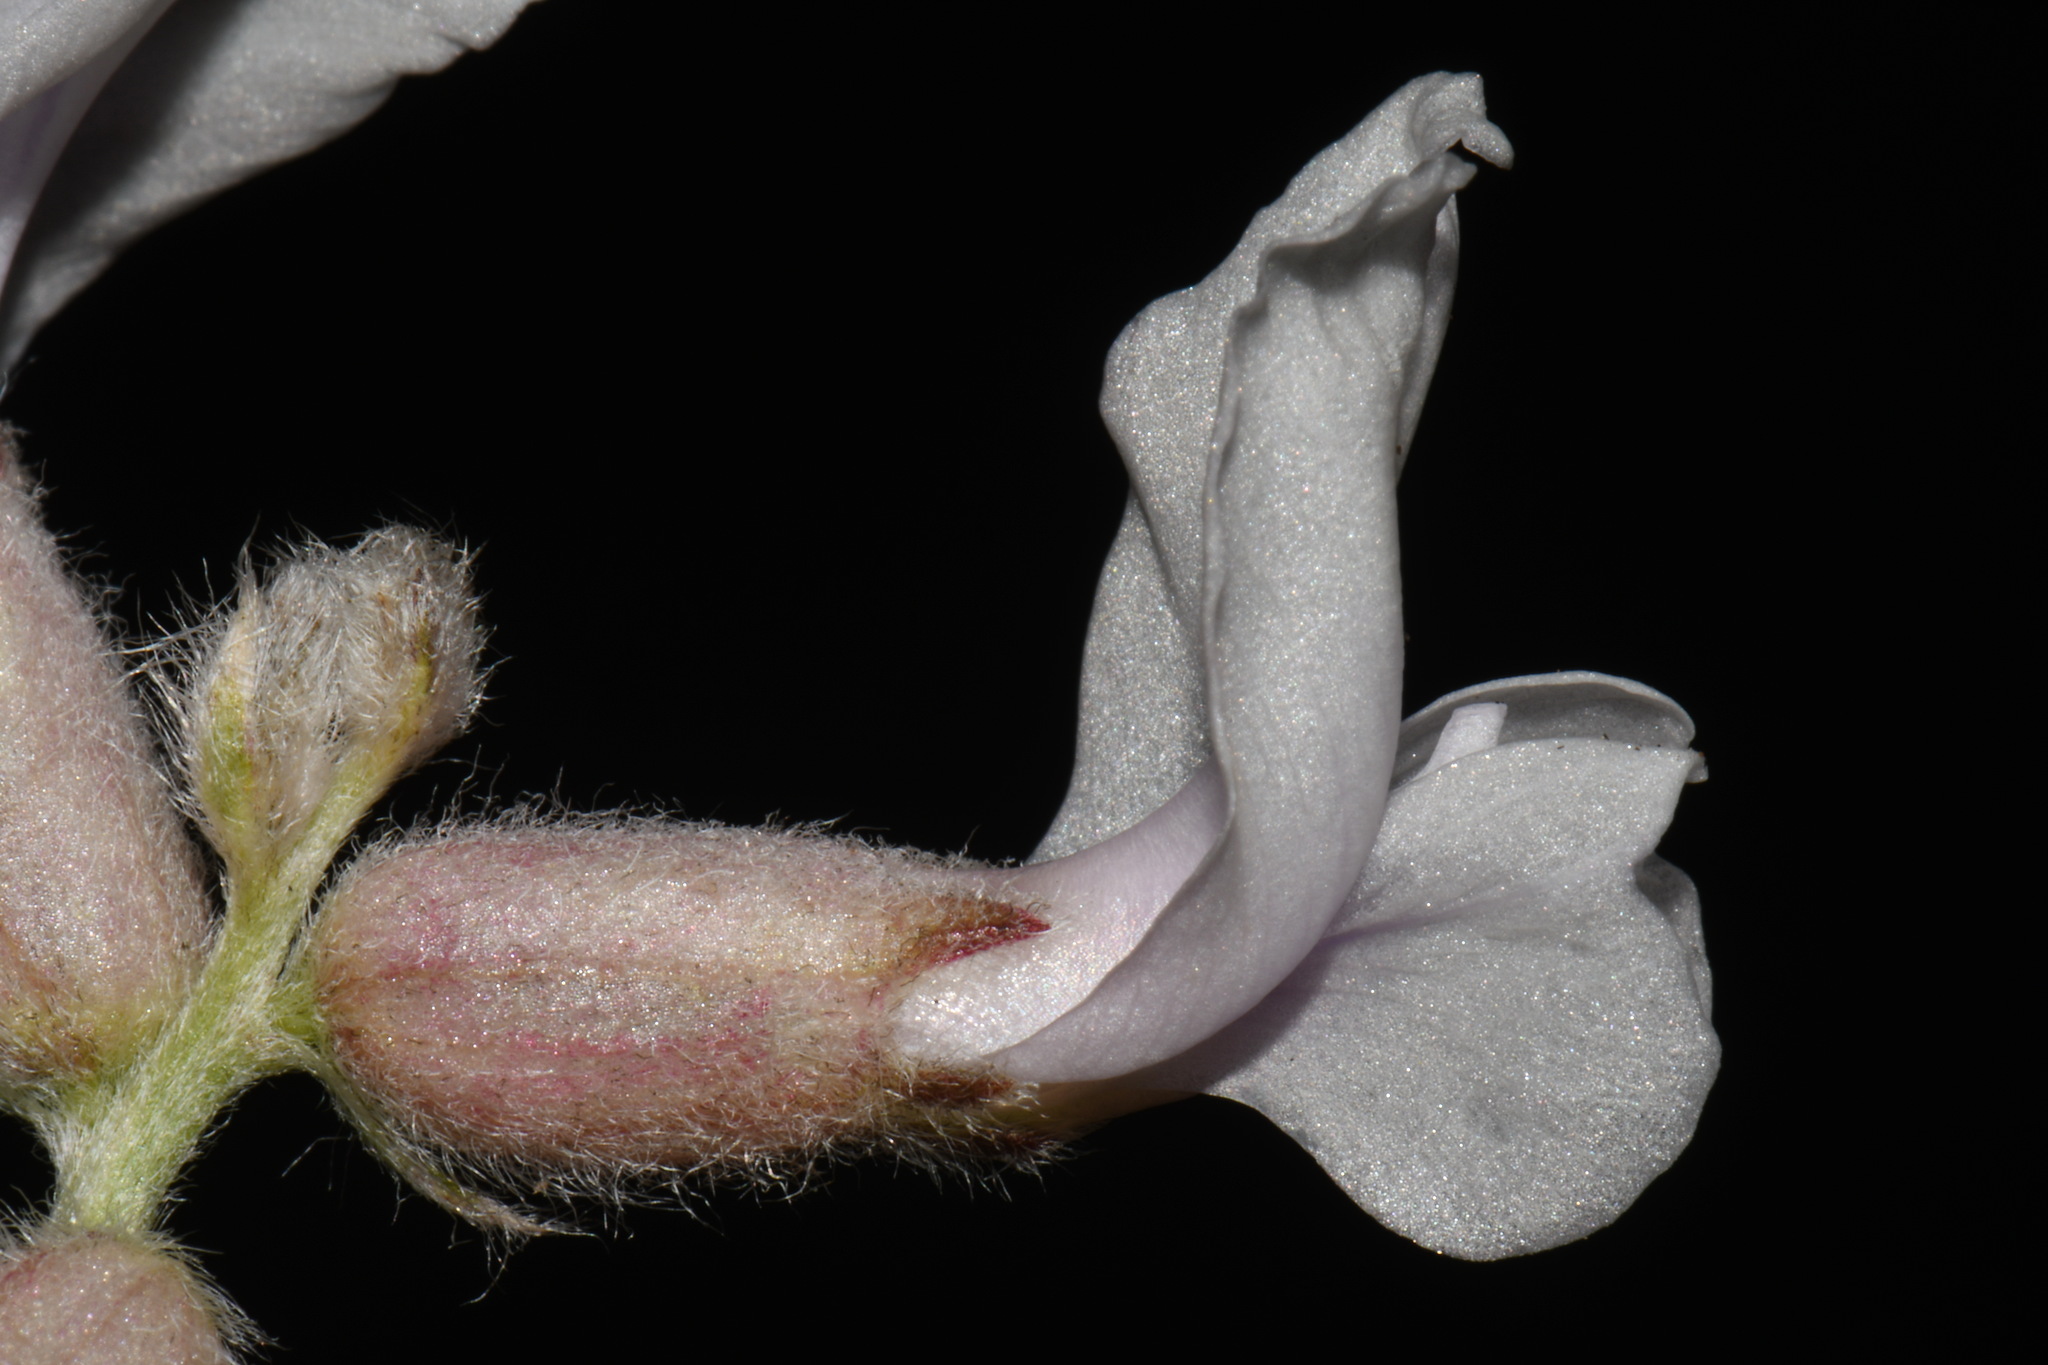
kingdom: Plantae
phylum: Tracheophyta
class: Magnoliopsida
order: Fabales
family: Fabaceae
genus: Oxytropis
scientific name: Oxytropis sericea
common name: Silky locoweed
